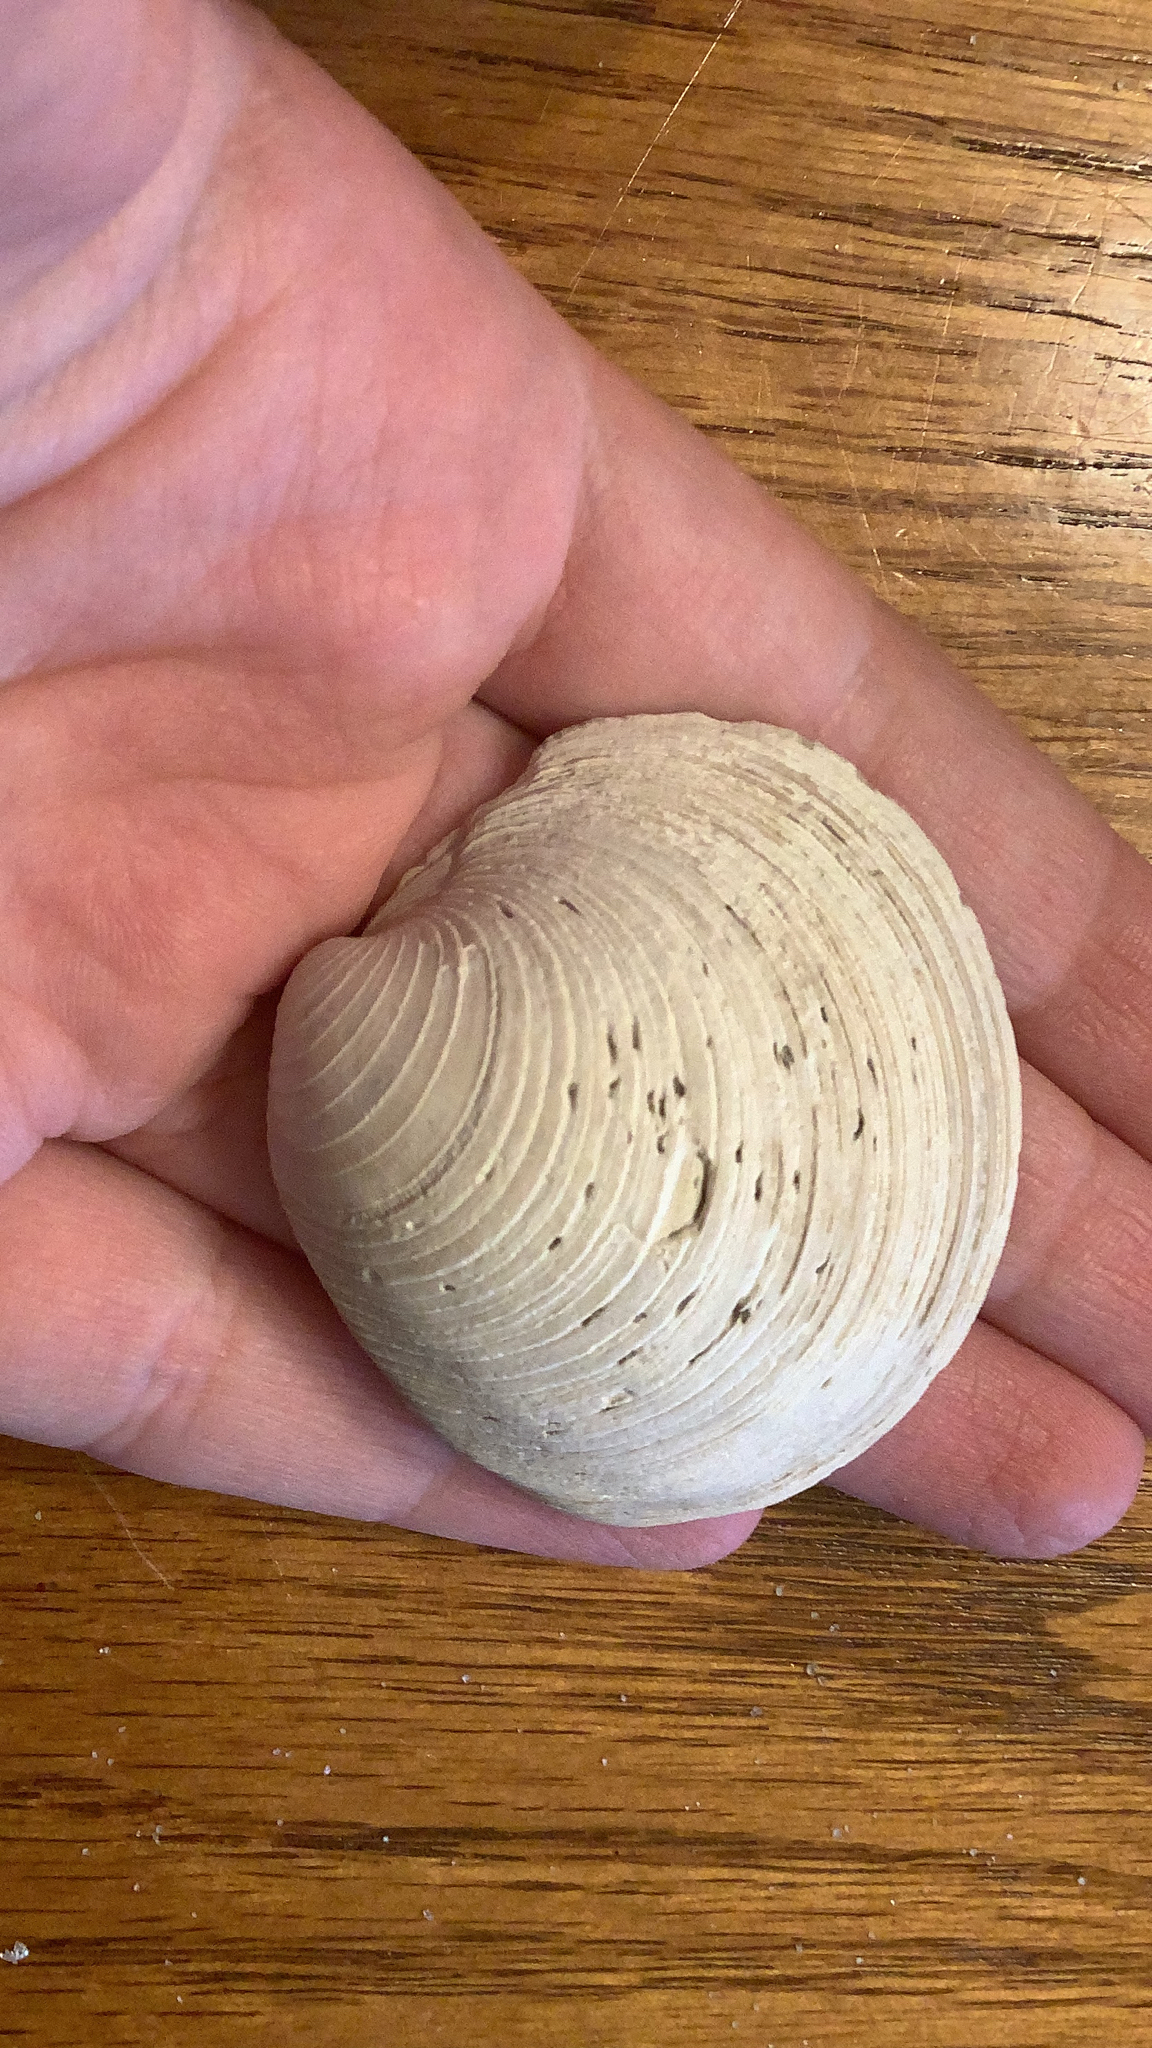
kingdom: Animalia
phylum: Mollusca
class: Bivalvia
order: Venerida
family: Veneridae
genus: Mercenaria
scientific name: Mercenaria campechiensis
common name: Südliche quahog-muschel
